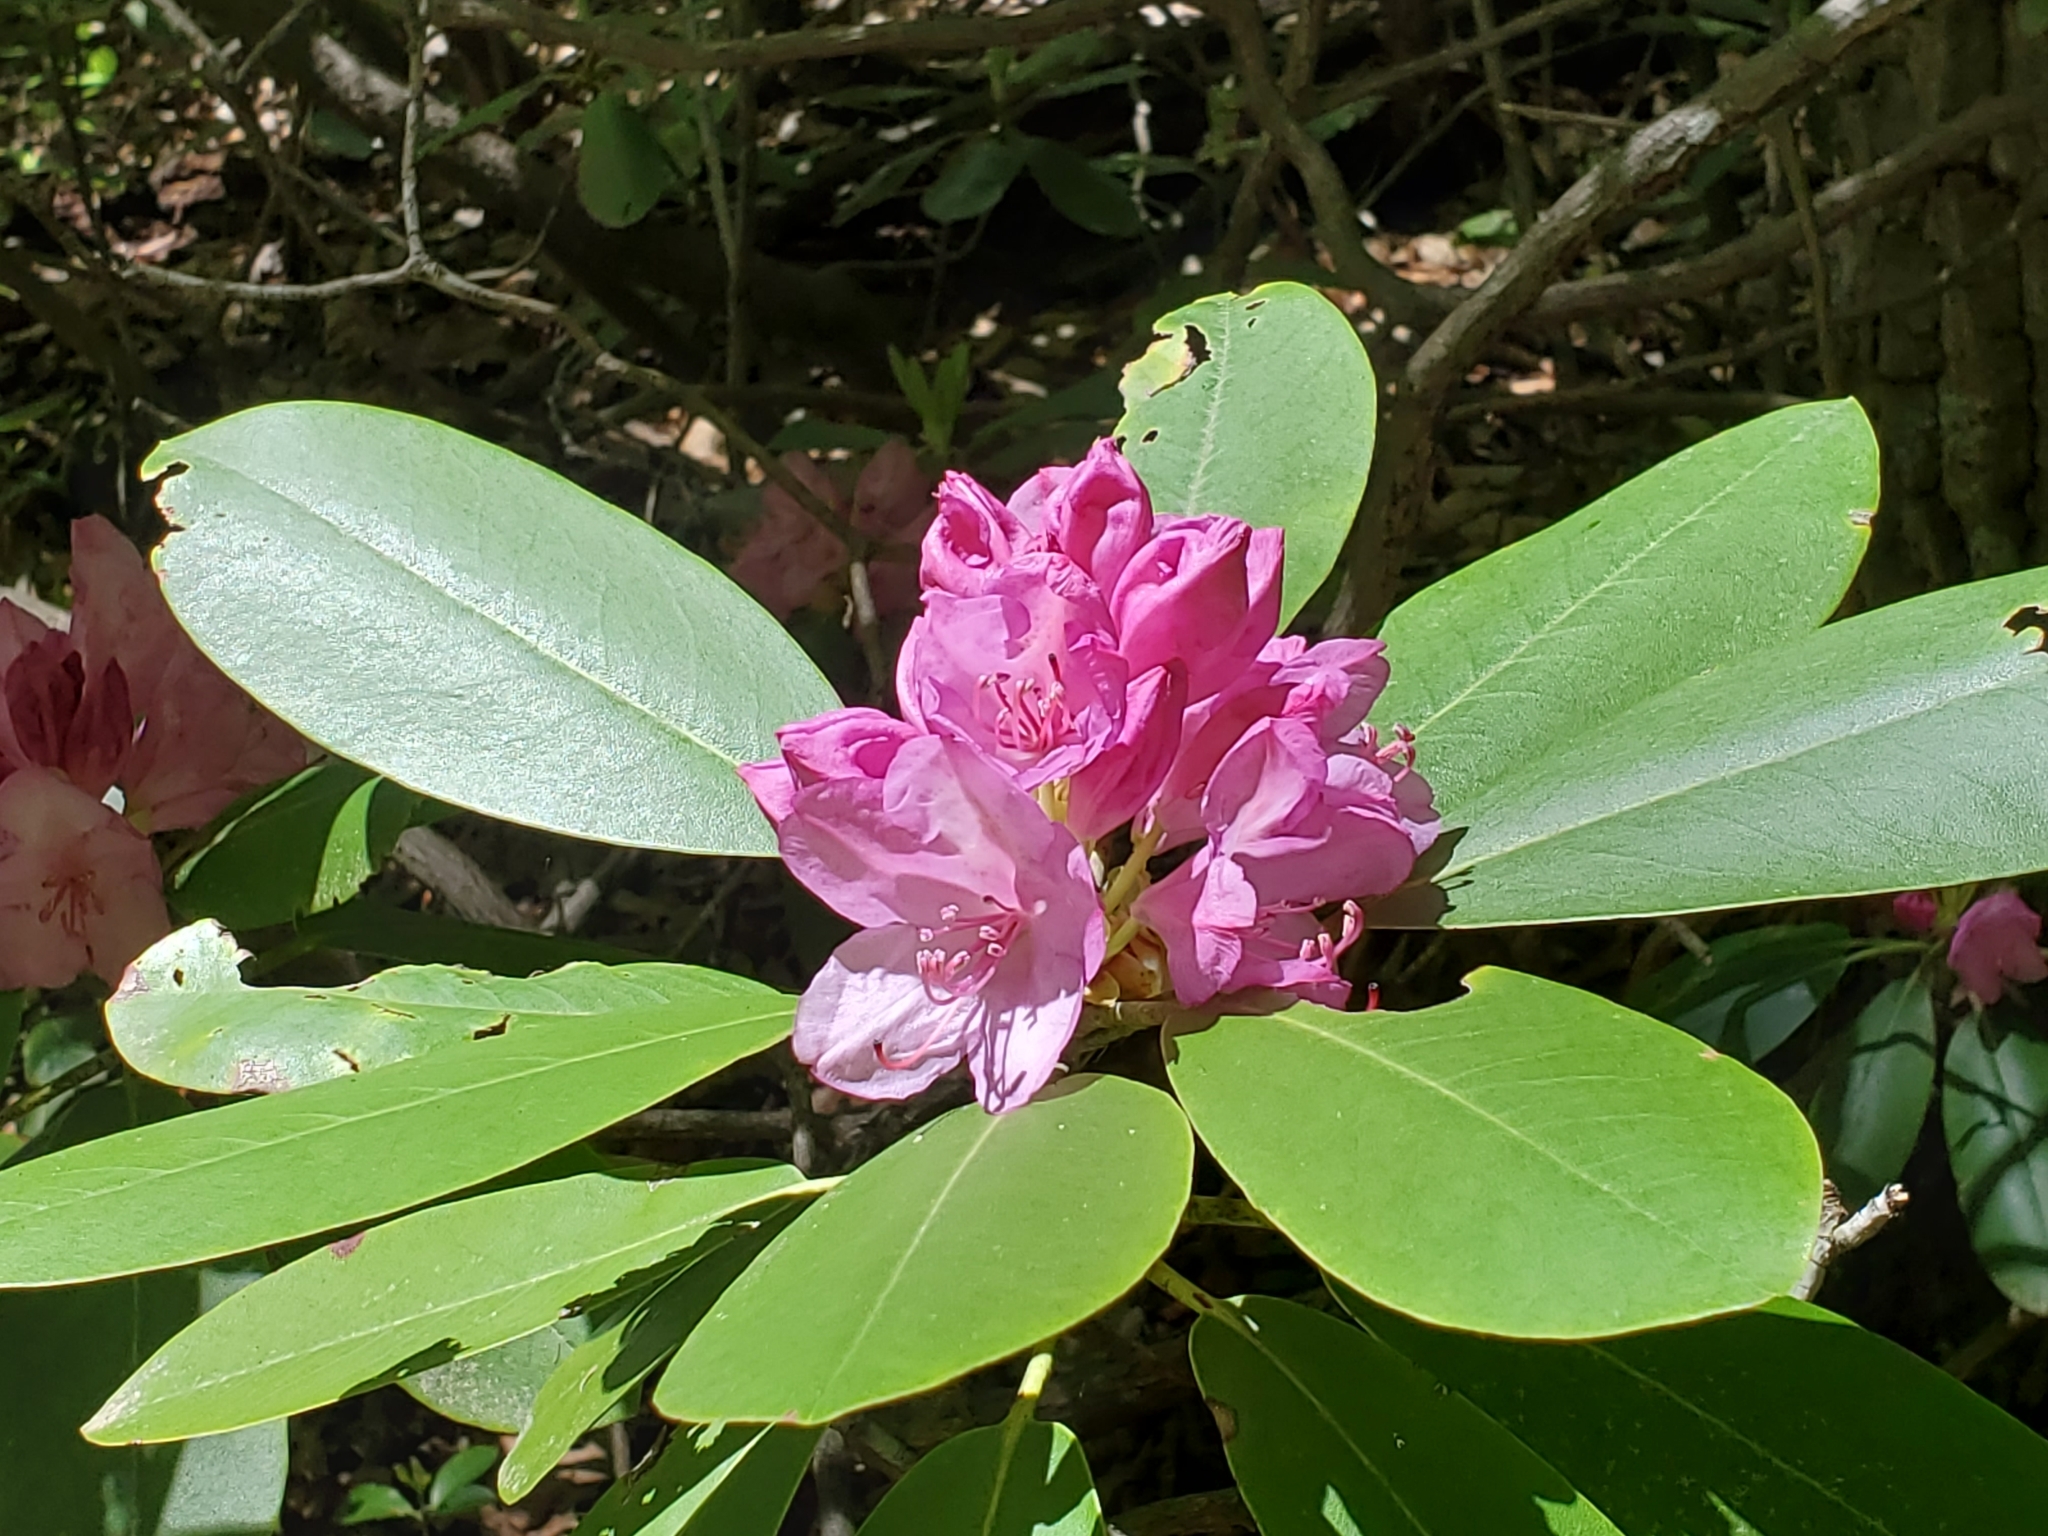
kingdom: Plantae
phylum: Tracheophyta
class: Magnoliopsida
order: Ericales
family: Ericaceae
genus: Rhododendron
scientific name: Rhododendron catawbiense
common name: Catawba rhododendron
